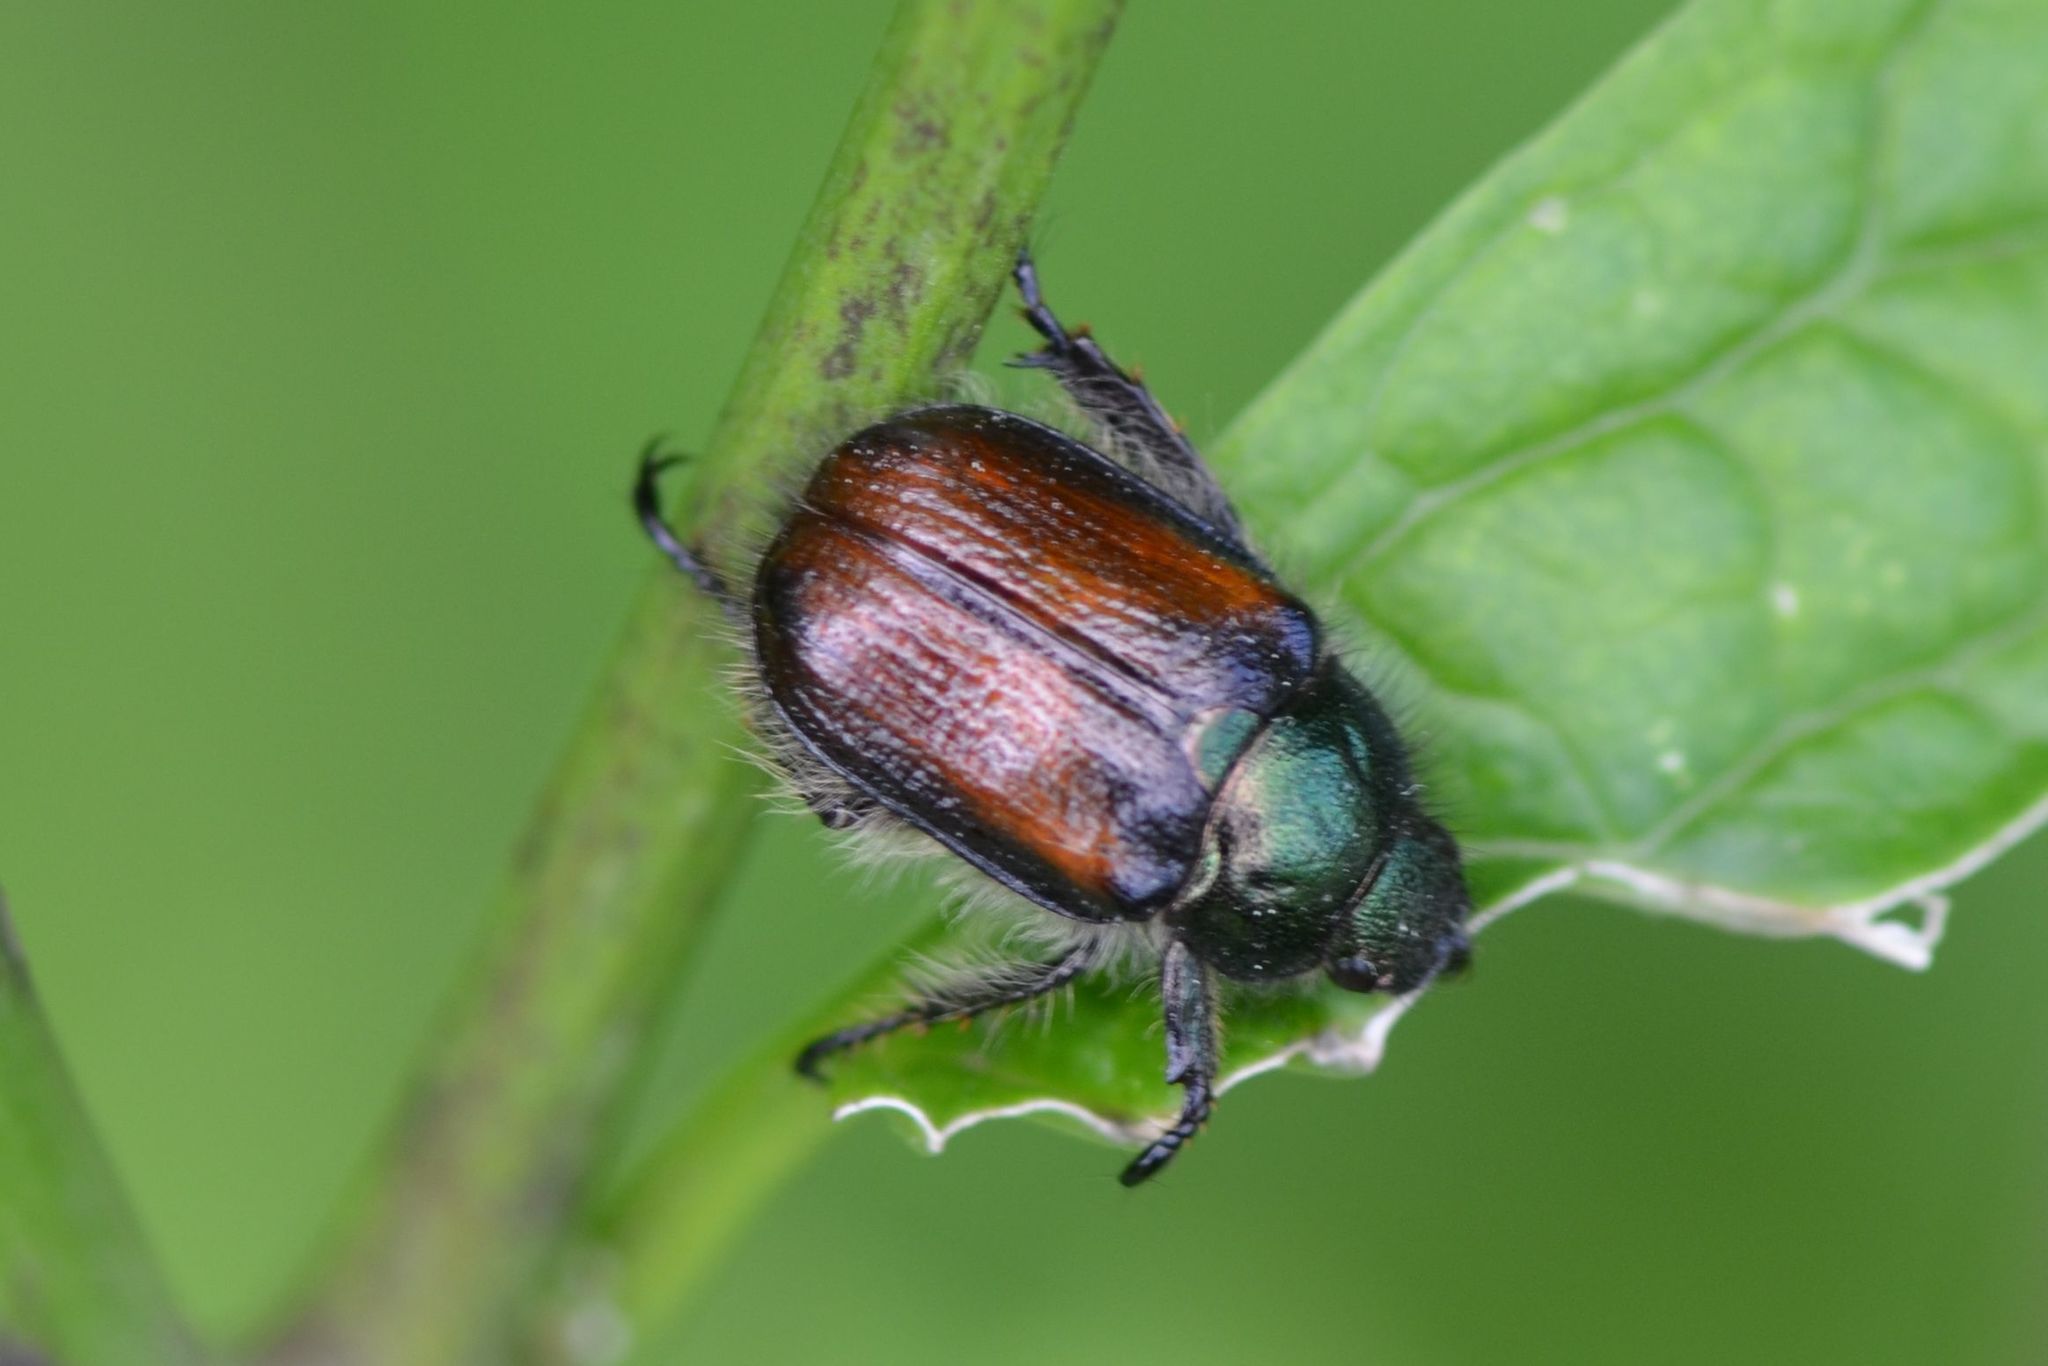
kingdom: Animalia
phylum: Arthropoda
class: Insecta
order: Coleoptera
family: Scarabaeidae
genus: Phyllopertha
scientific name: Phyllopertha horticola
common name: Garden chafer
